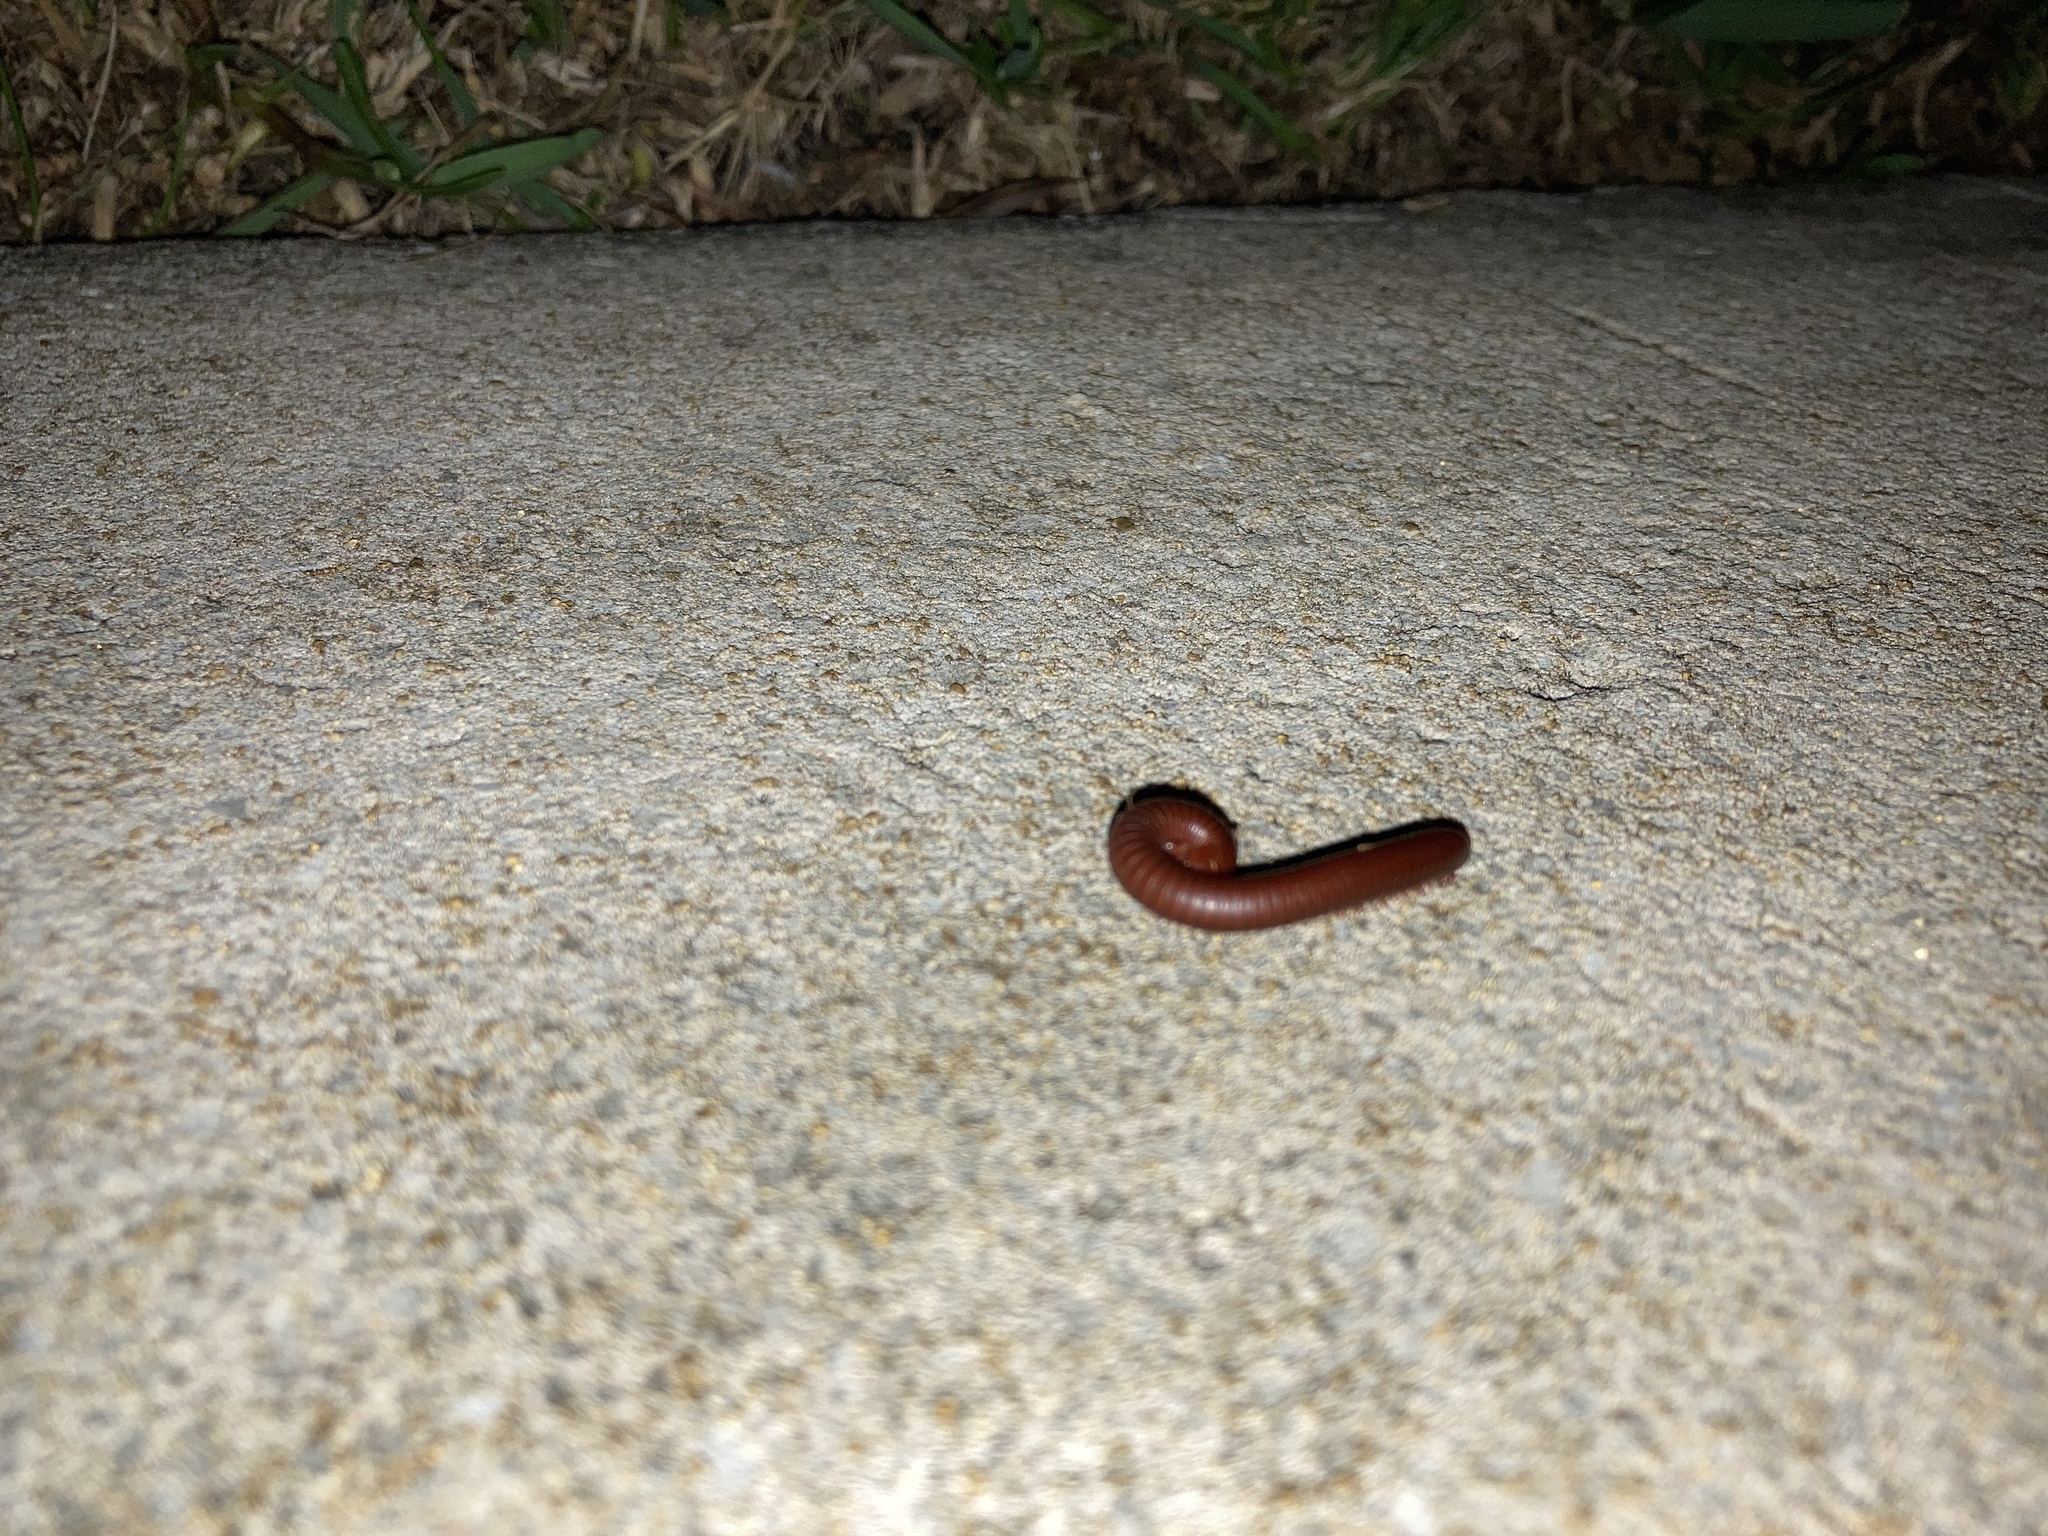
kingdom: Animalia
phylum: Arthropoda
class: Diplopoda
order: Spirobolida
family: Pachybolidae
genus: Trigoniulus
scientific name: Trigoniulus corallinus
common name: Millipede
